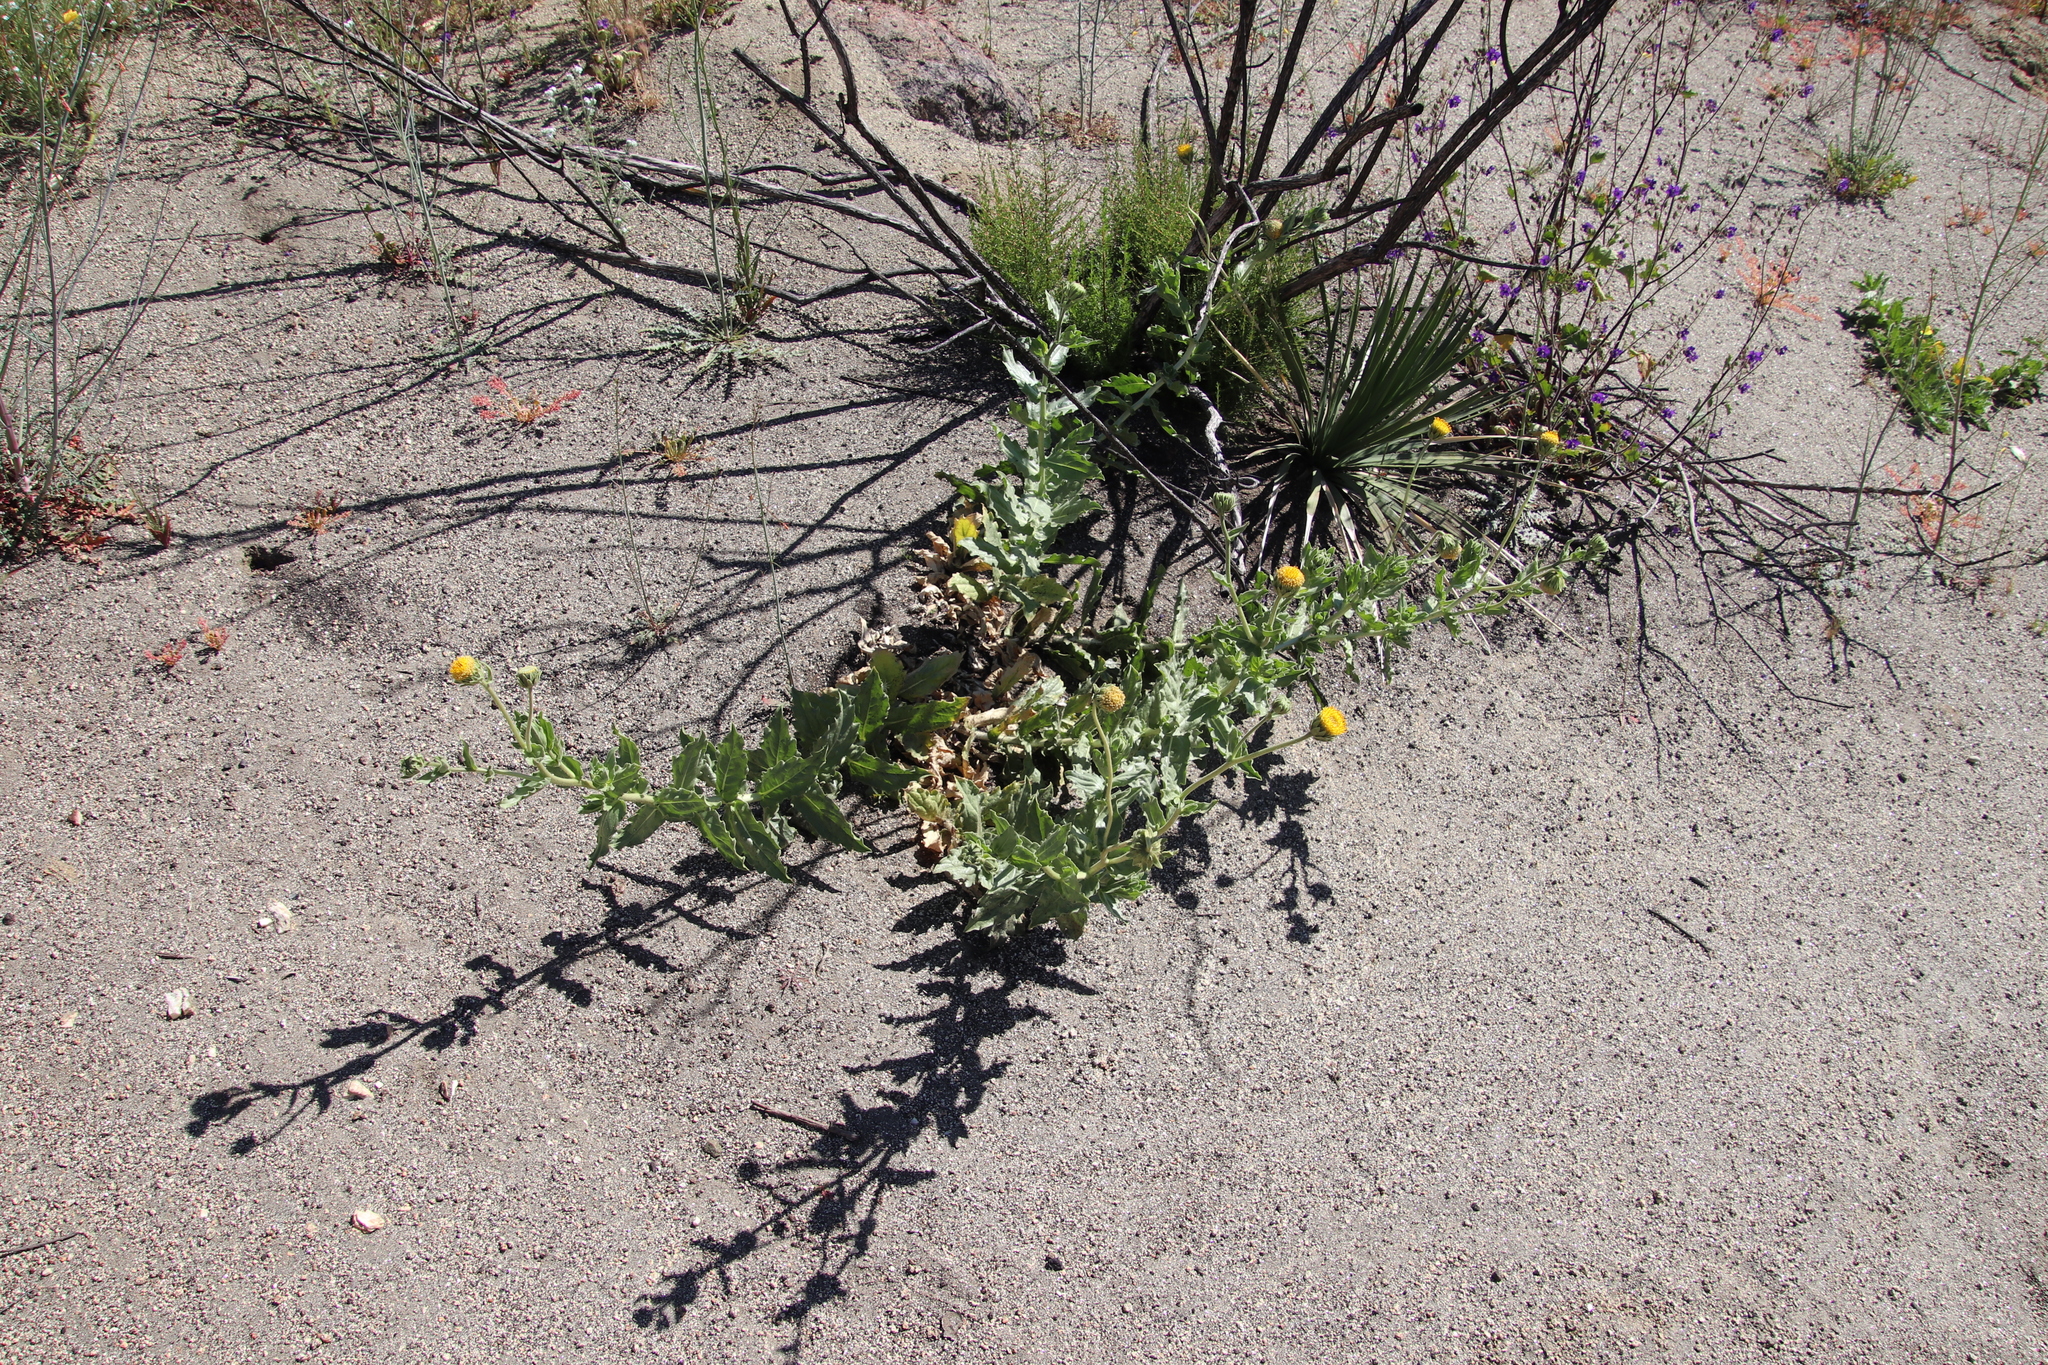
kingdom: Plantae
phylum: Tracheophyta
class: Magnoliopsida
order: Asterales
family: Asteraceae
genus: Geraea
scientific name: Geraea viscida
